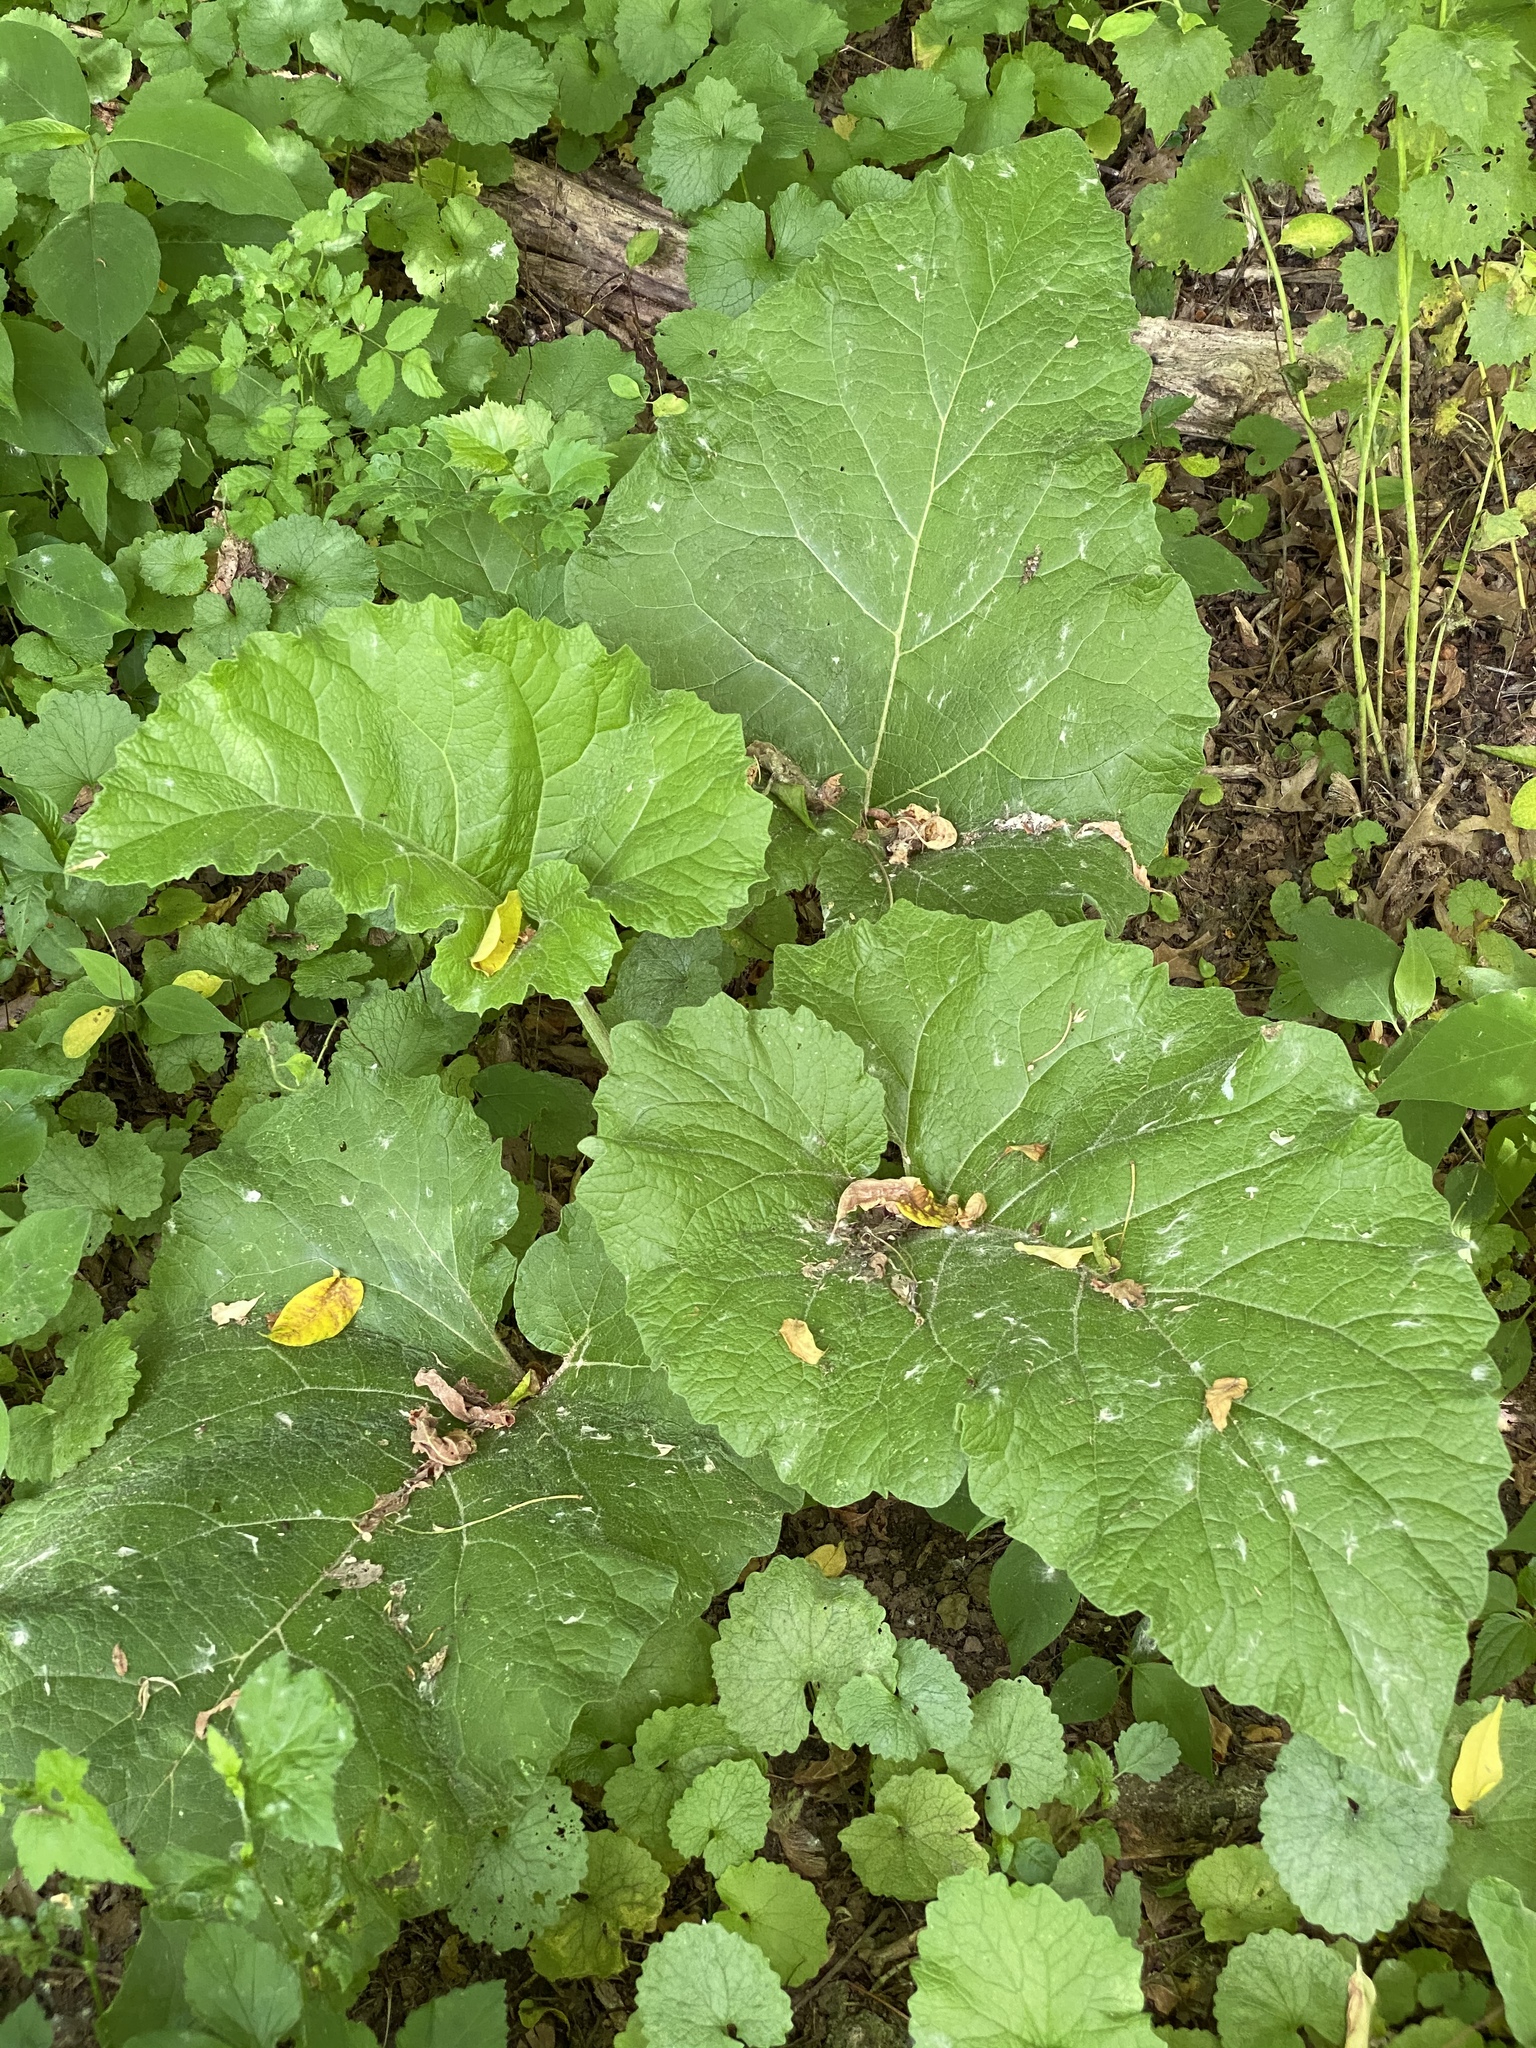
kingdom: Plantae
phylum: Tracheophyta
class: Magnoliopsida
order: Asterales
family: Asteraceae
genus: Arctium
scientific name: Arctium
